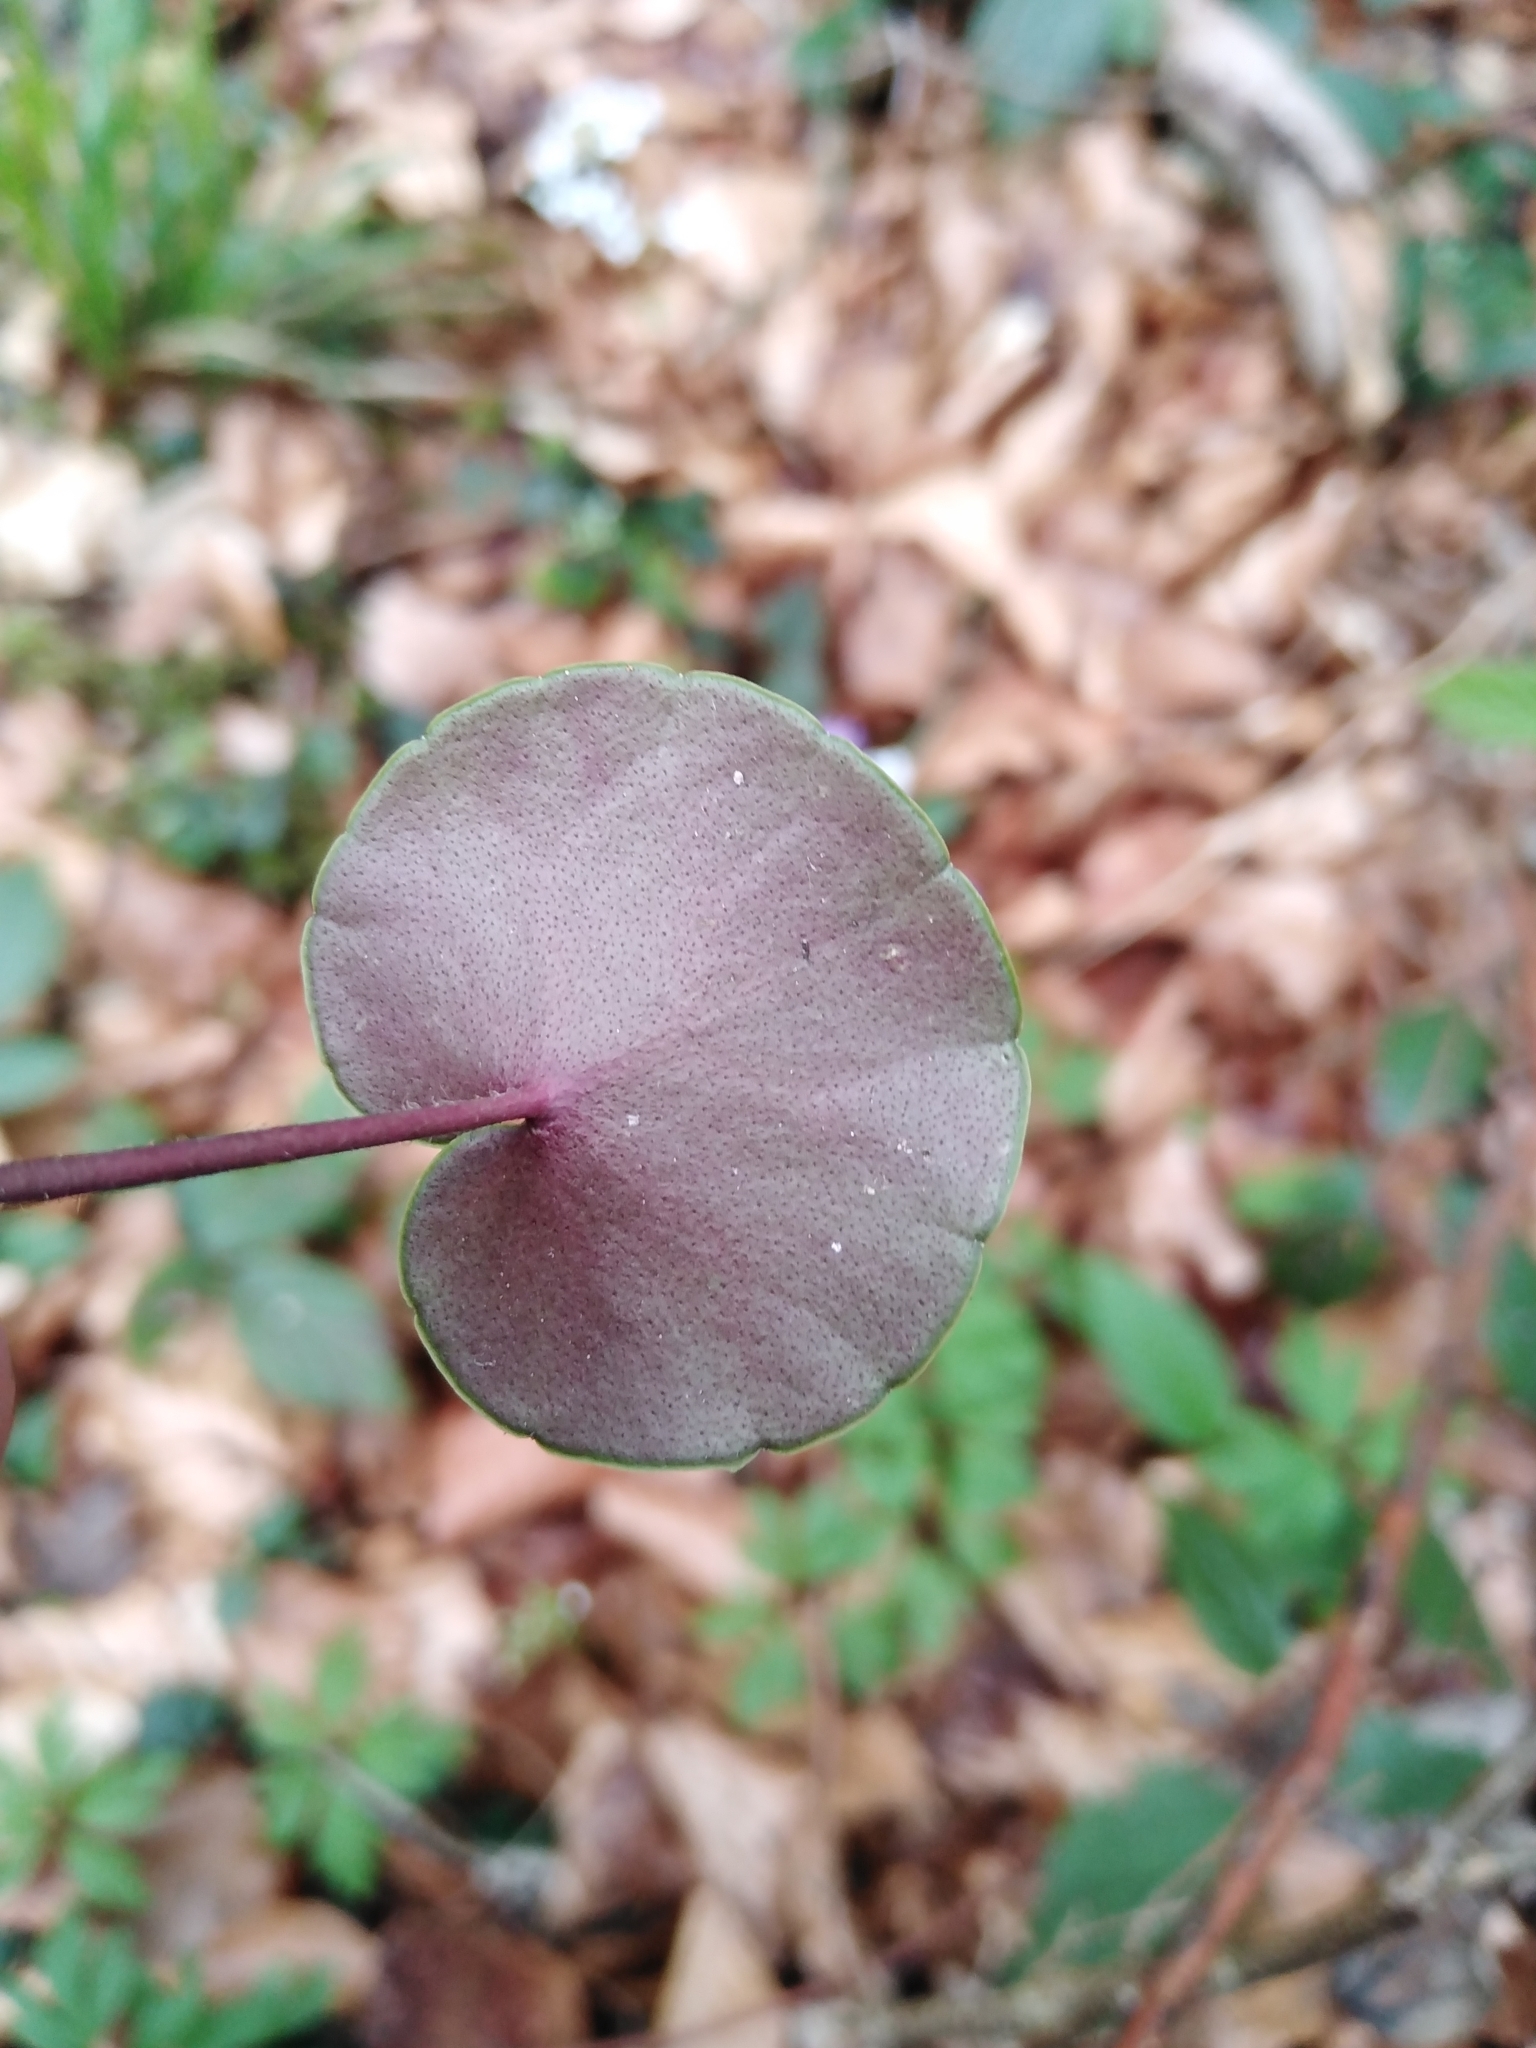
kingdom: Plantae
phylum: Tracheophyta
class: Magnoliopsida
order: Ericales
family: Primulaceae
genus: Soldanella
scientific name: Soldanella montana
